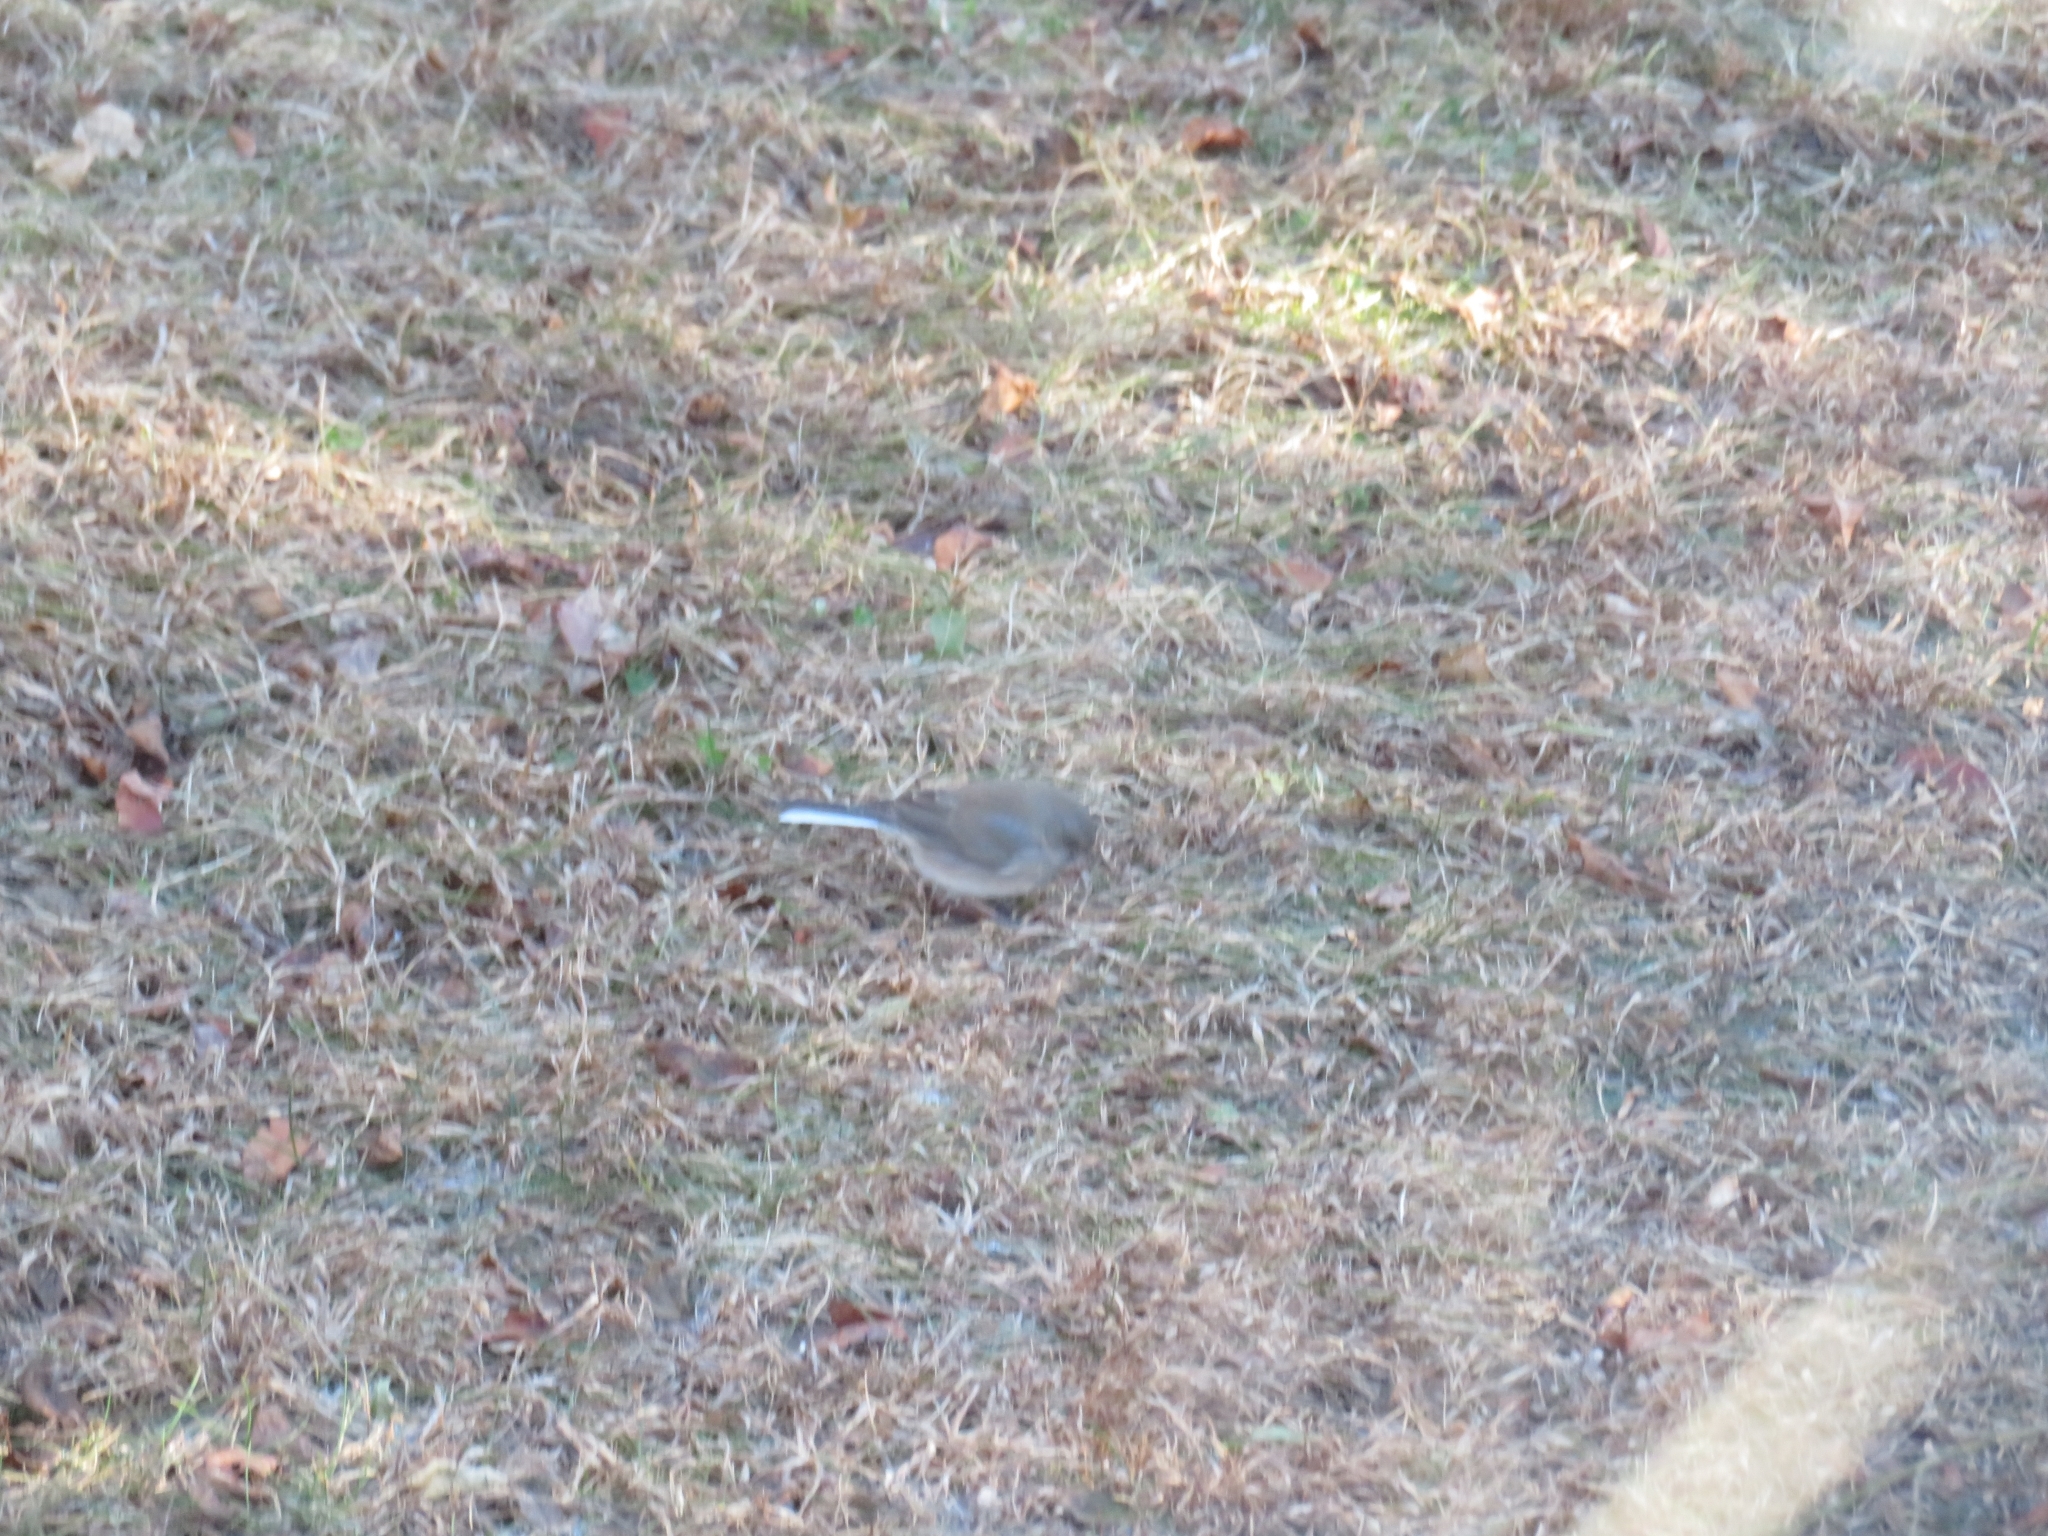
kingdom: Animalia
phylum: Chordata
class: Aves
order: Passeriformes
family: Passerellidae
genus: Junco
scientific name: Junco hyemalis
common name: Dark-eyed junco
